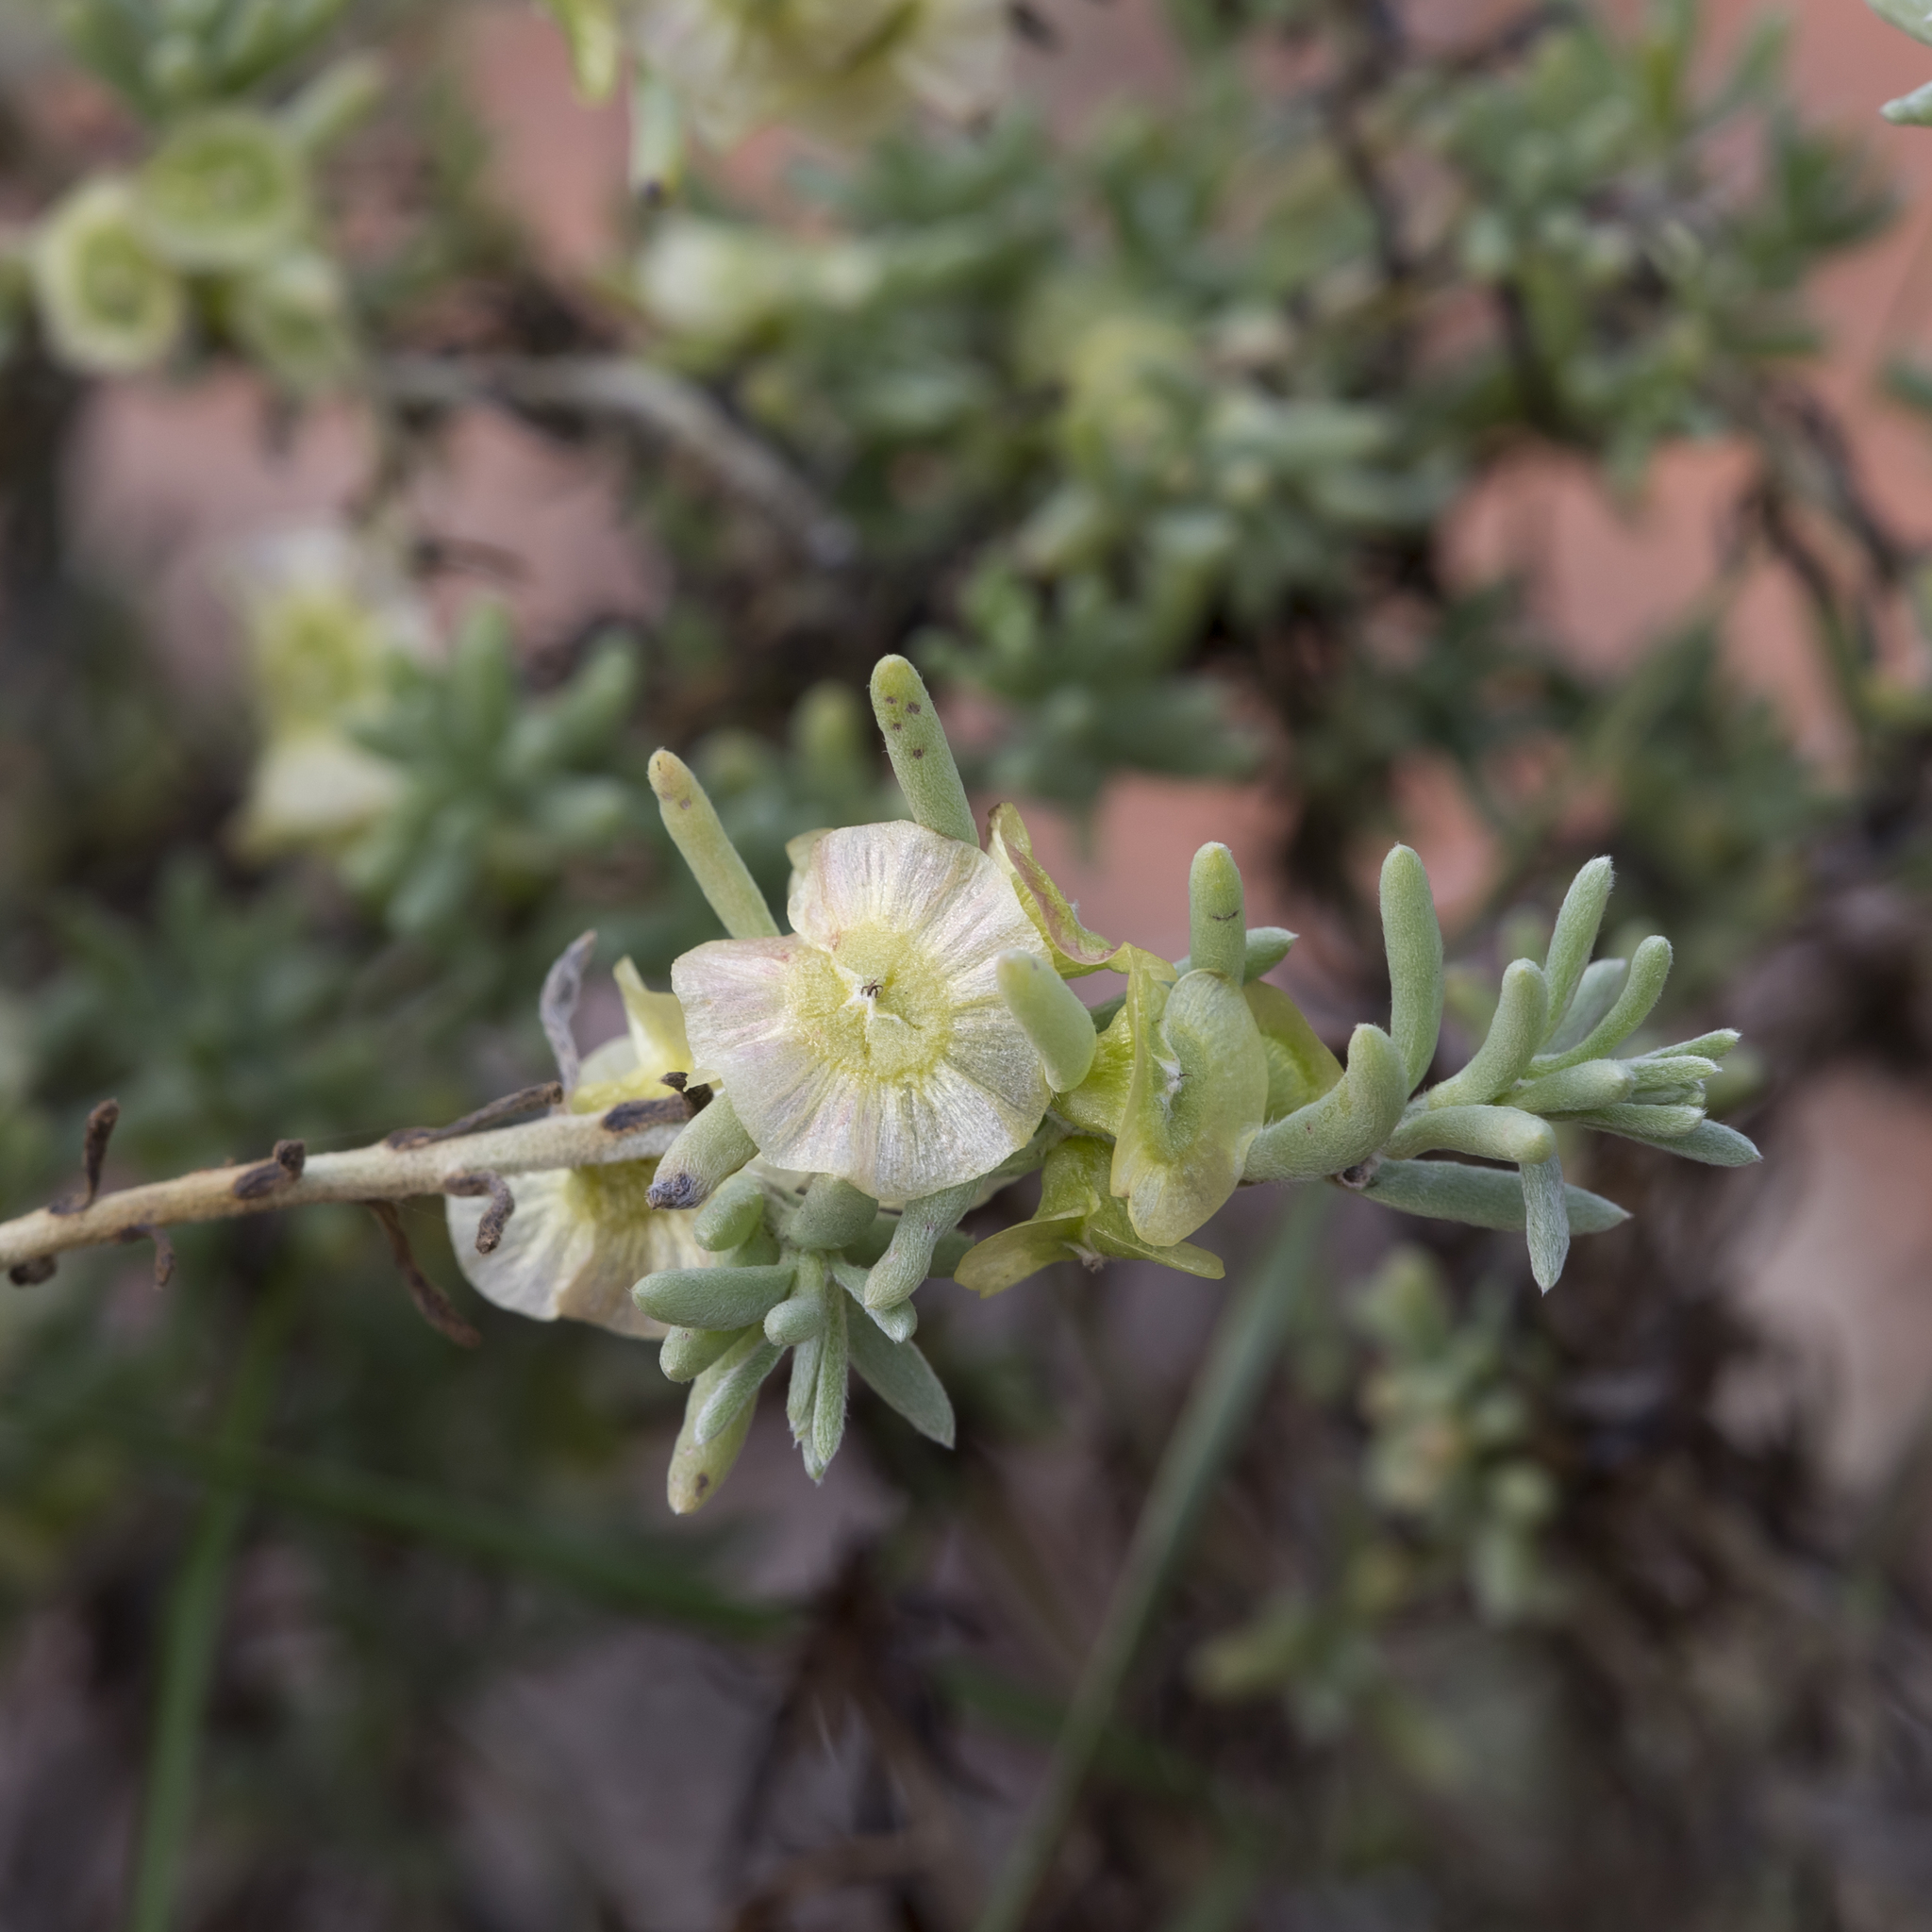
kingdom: Plantae
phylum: Tracheophyta
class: Magnoliopsida
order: Caryophyllales
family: Amaranthaceae
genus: Maireana
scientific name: Maireana georgei
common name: Satiny bluebush
